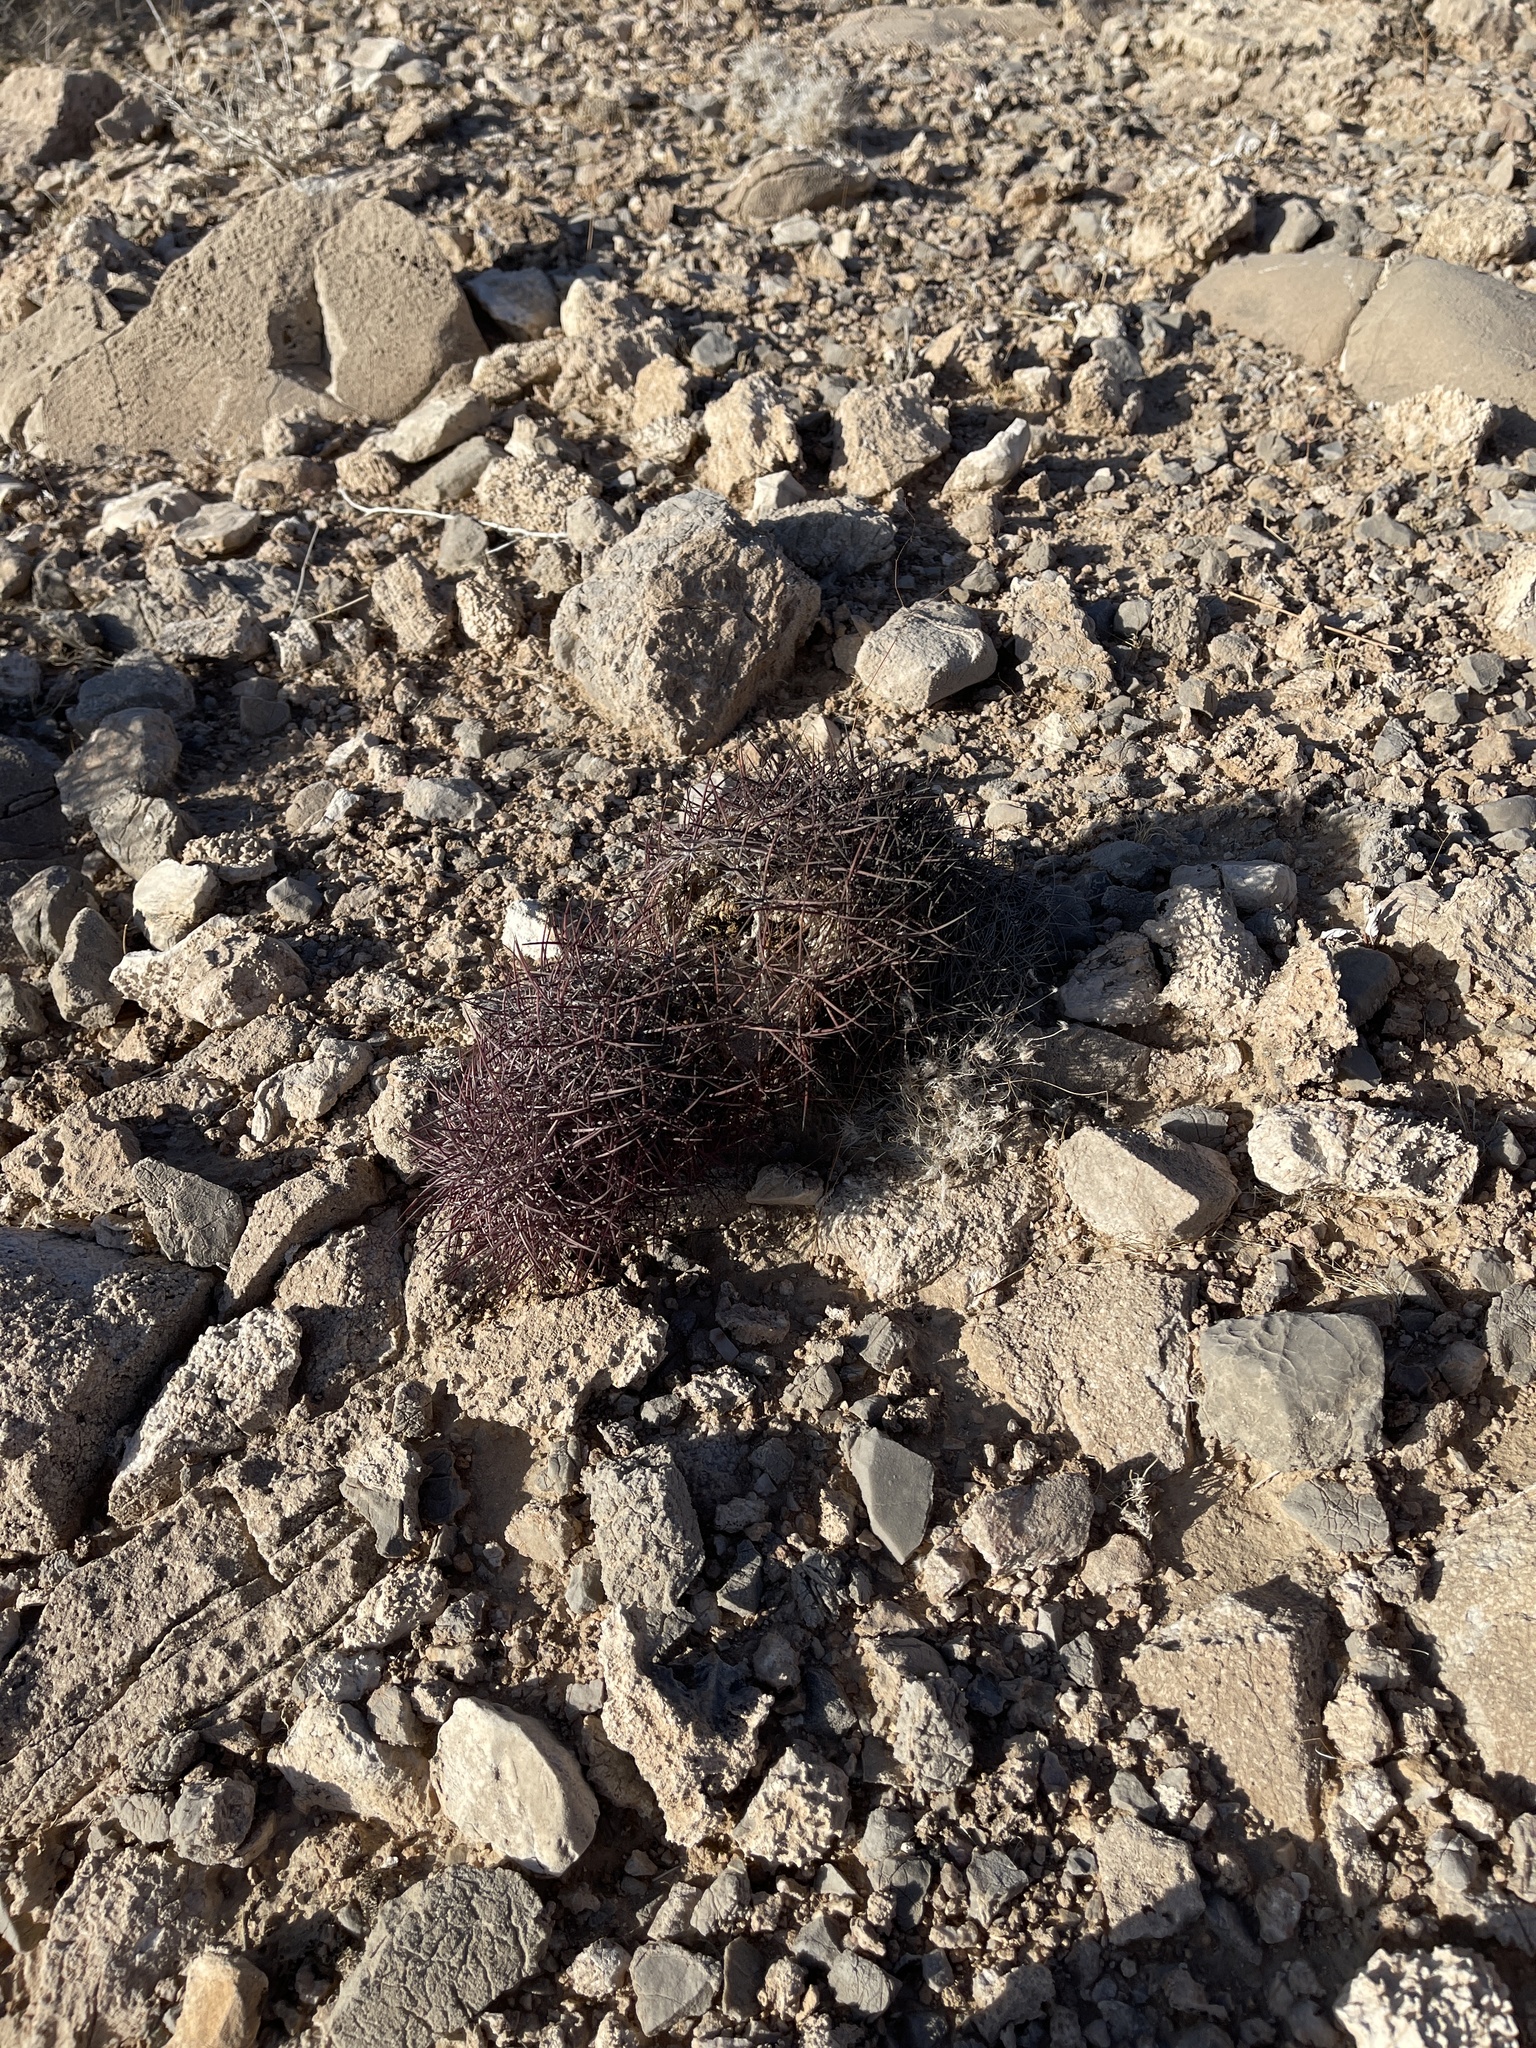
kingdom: Plantae
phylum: Tracheophyta
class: Magnoliopsida
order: Caryophyllales
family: Cactaceae
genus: Sclerocactus
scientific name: Sclerocactus johnsonii
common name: Eight-spine fishhook cactus
